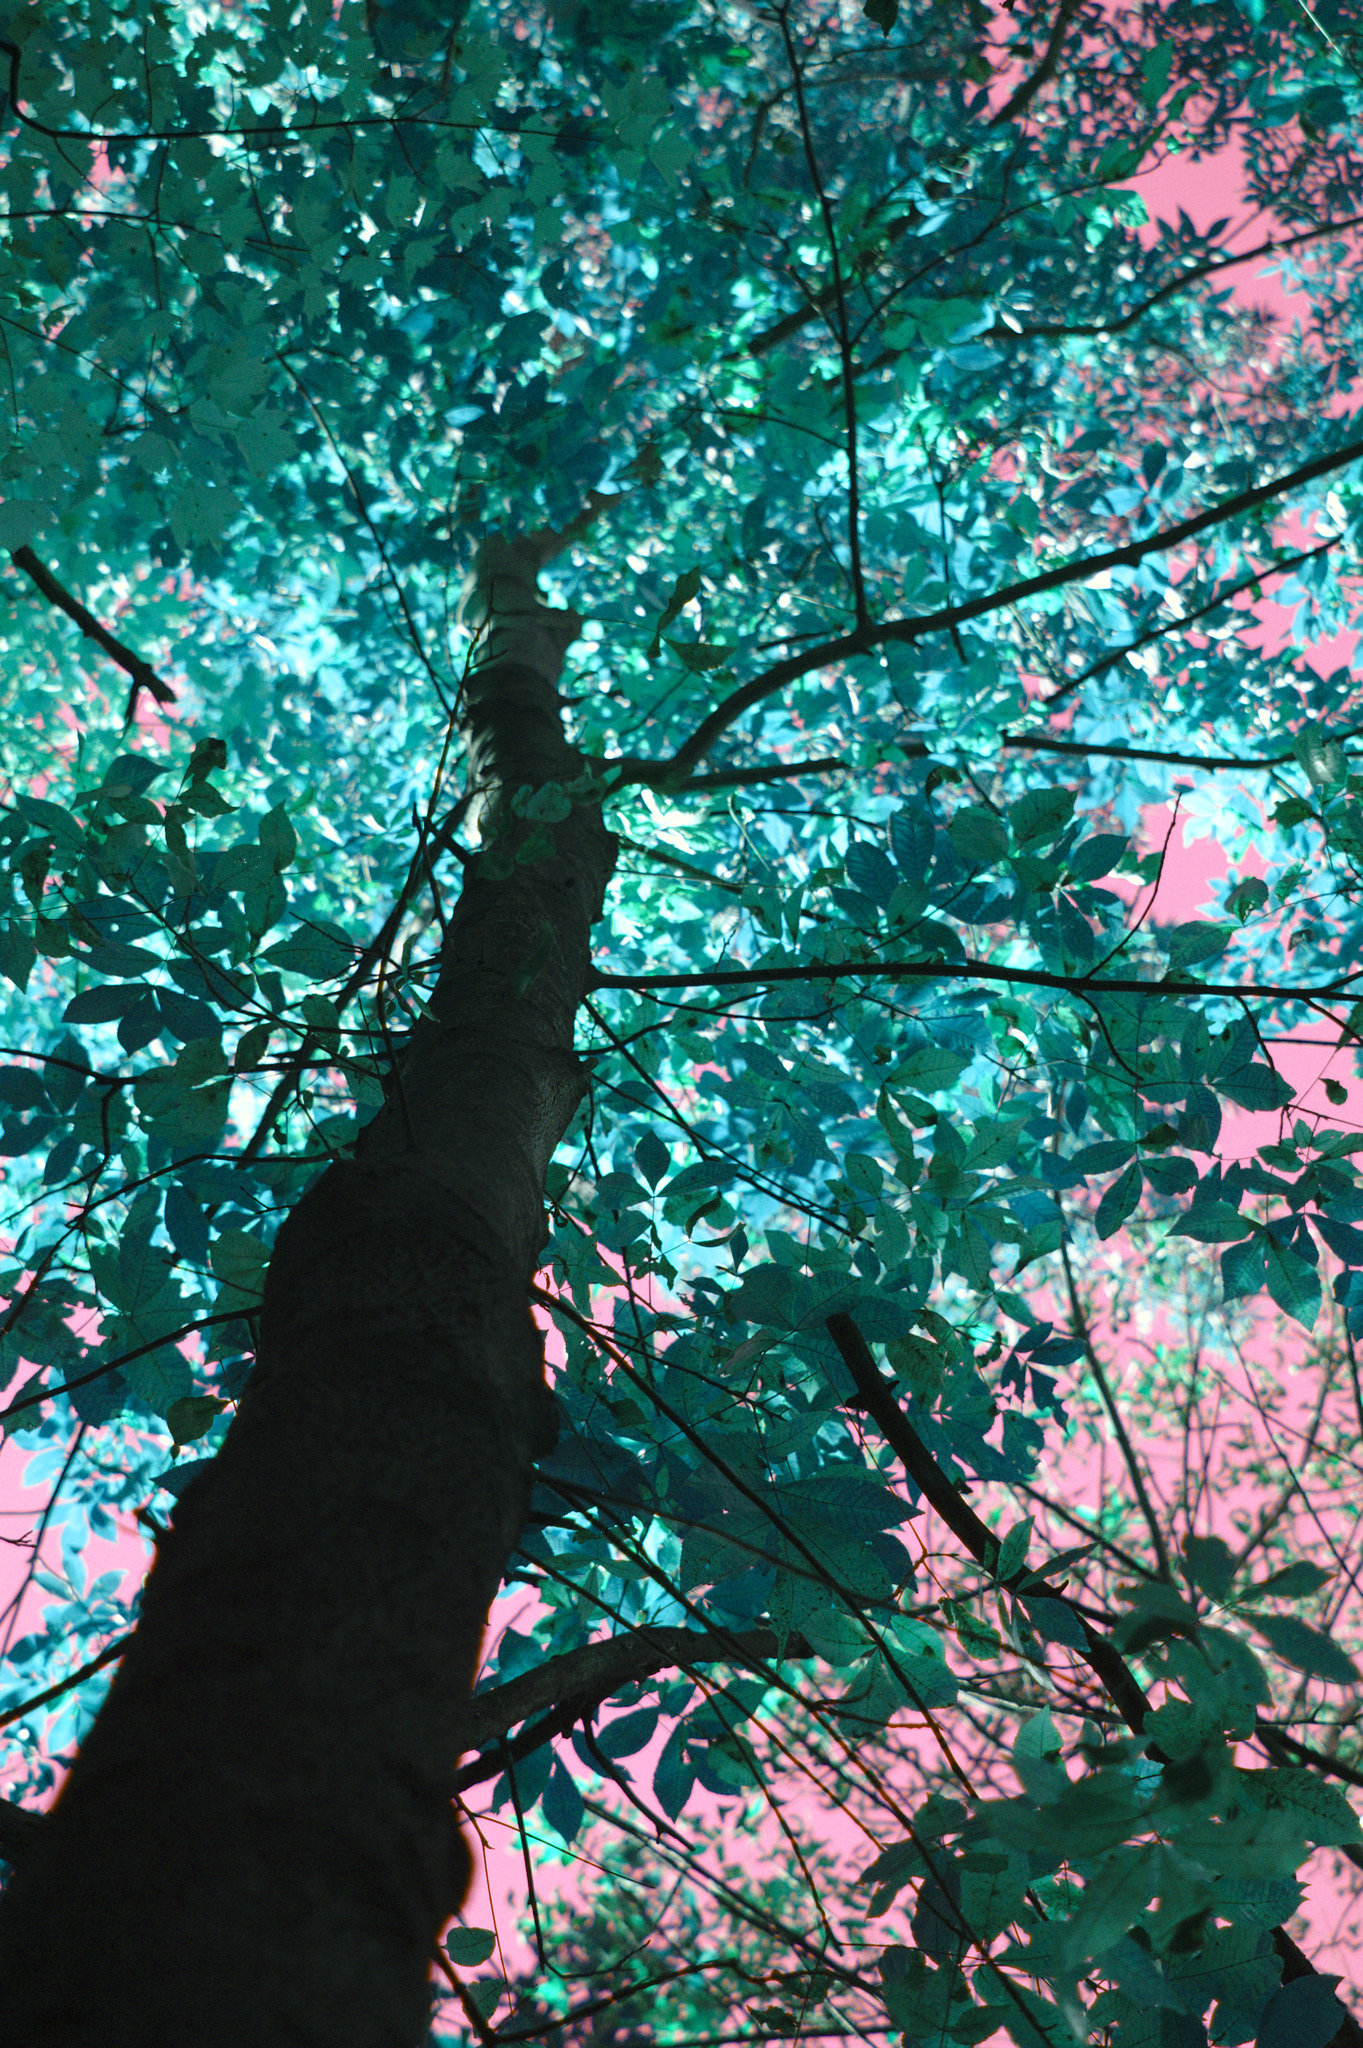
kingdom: Plantae
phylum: Tracheophyta
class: Magnoliopsida
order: Fagales
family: Juglandaceae
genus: Carya
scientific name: Carya cordiformis
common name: Bitternut hickory
